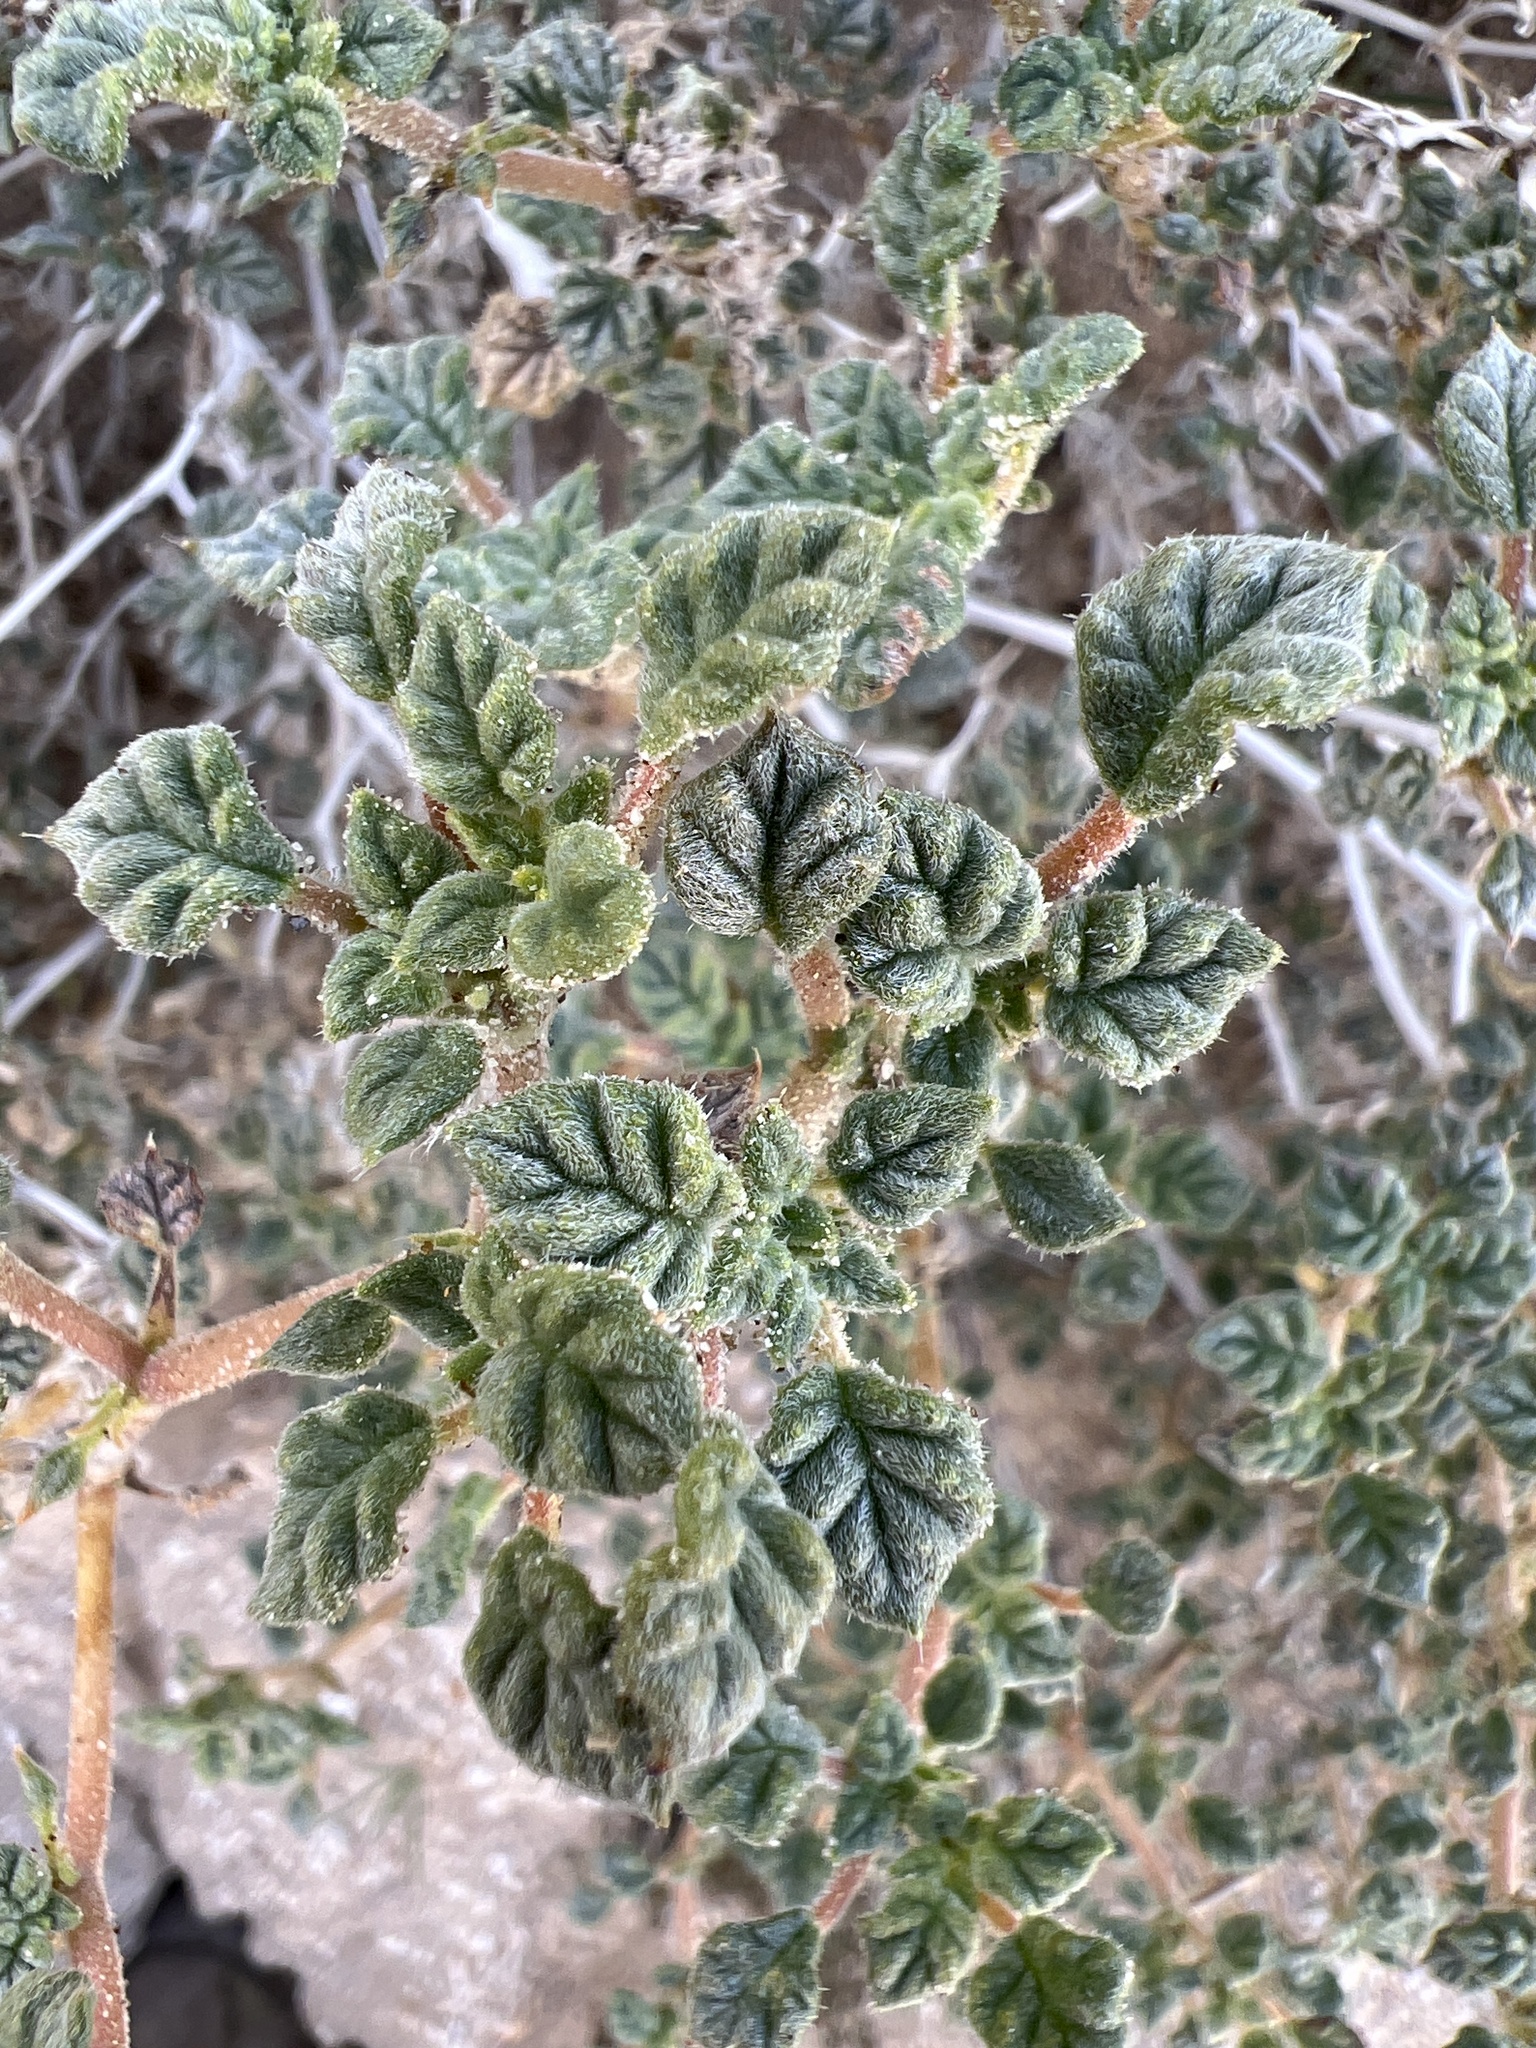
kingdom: Plantae
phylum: Tracheophyta
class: Magnoliopsida
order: Boraginales
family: Ehretiaceae
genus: Tiquilia
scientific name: Tiquilia palmeri
